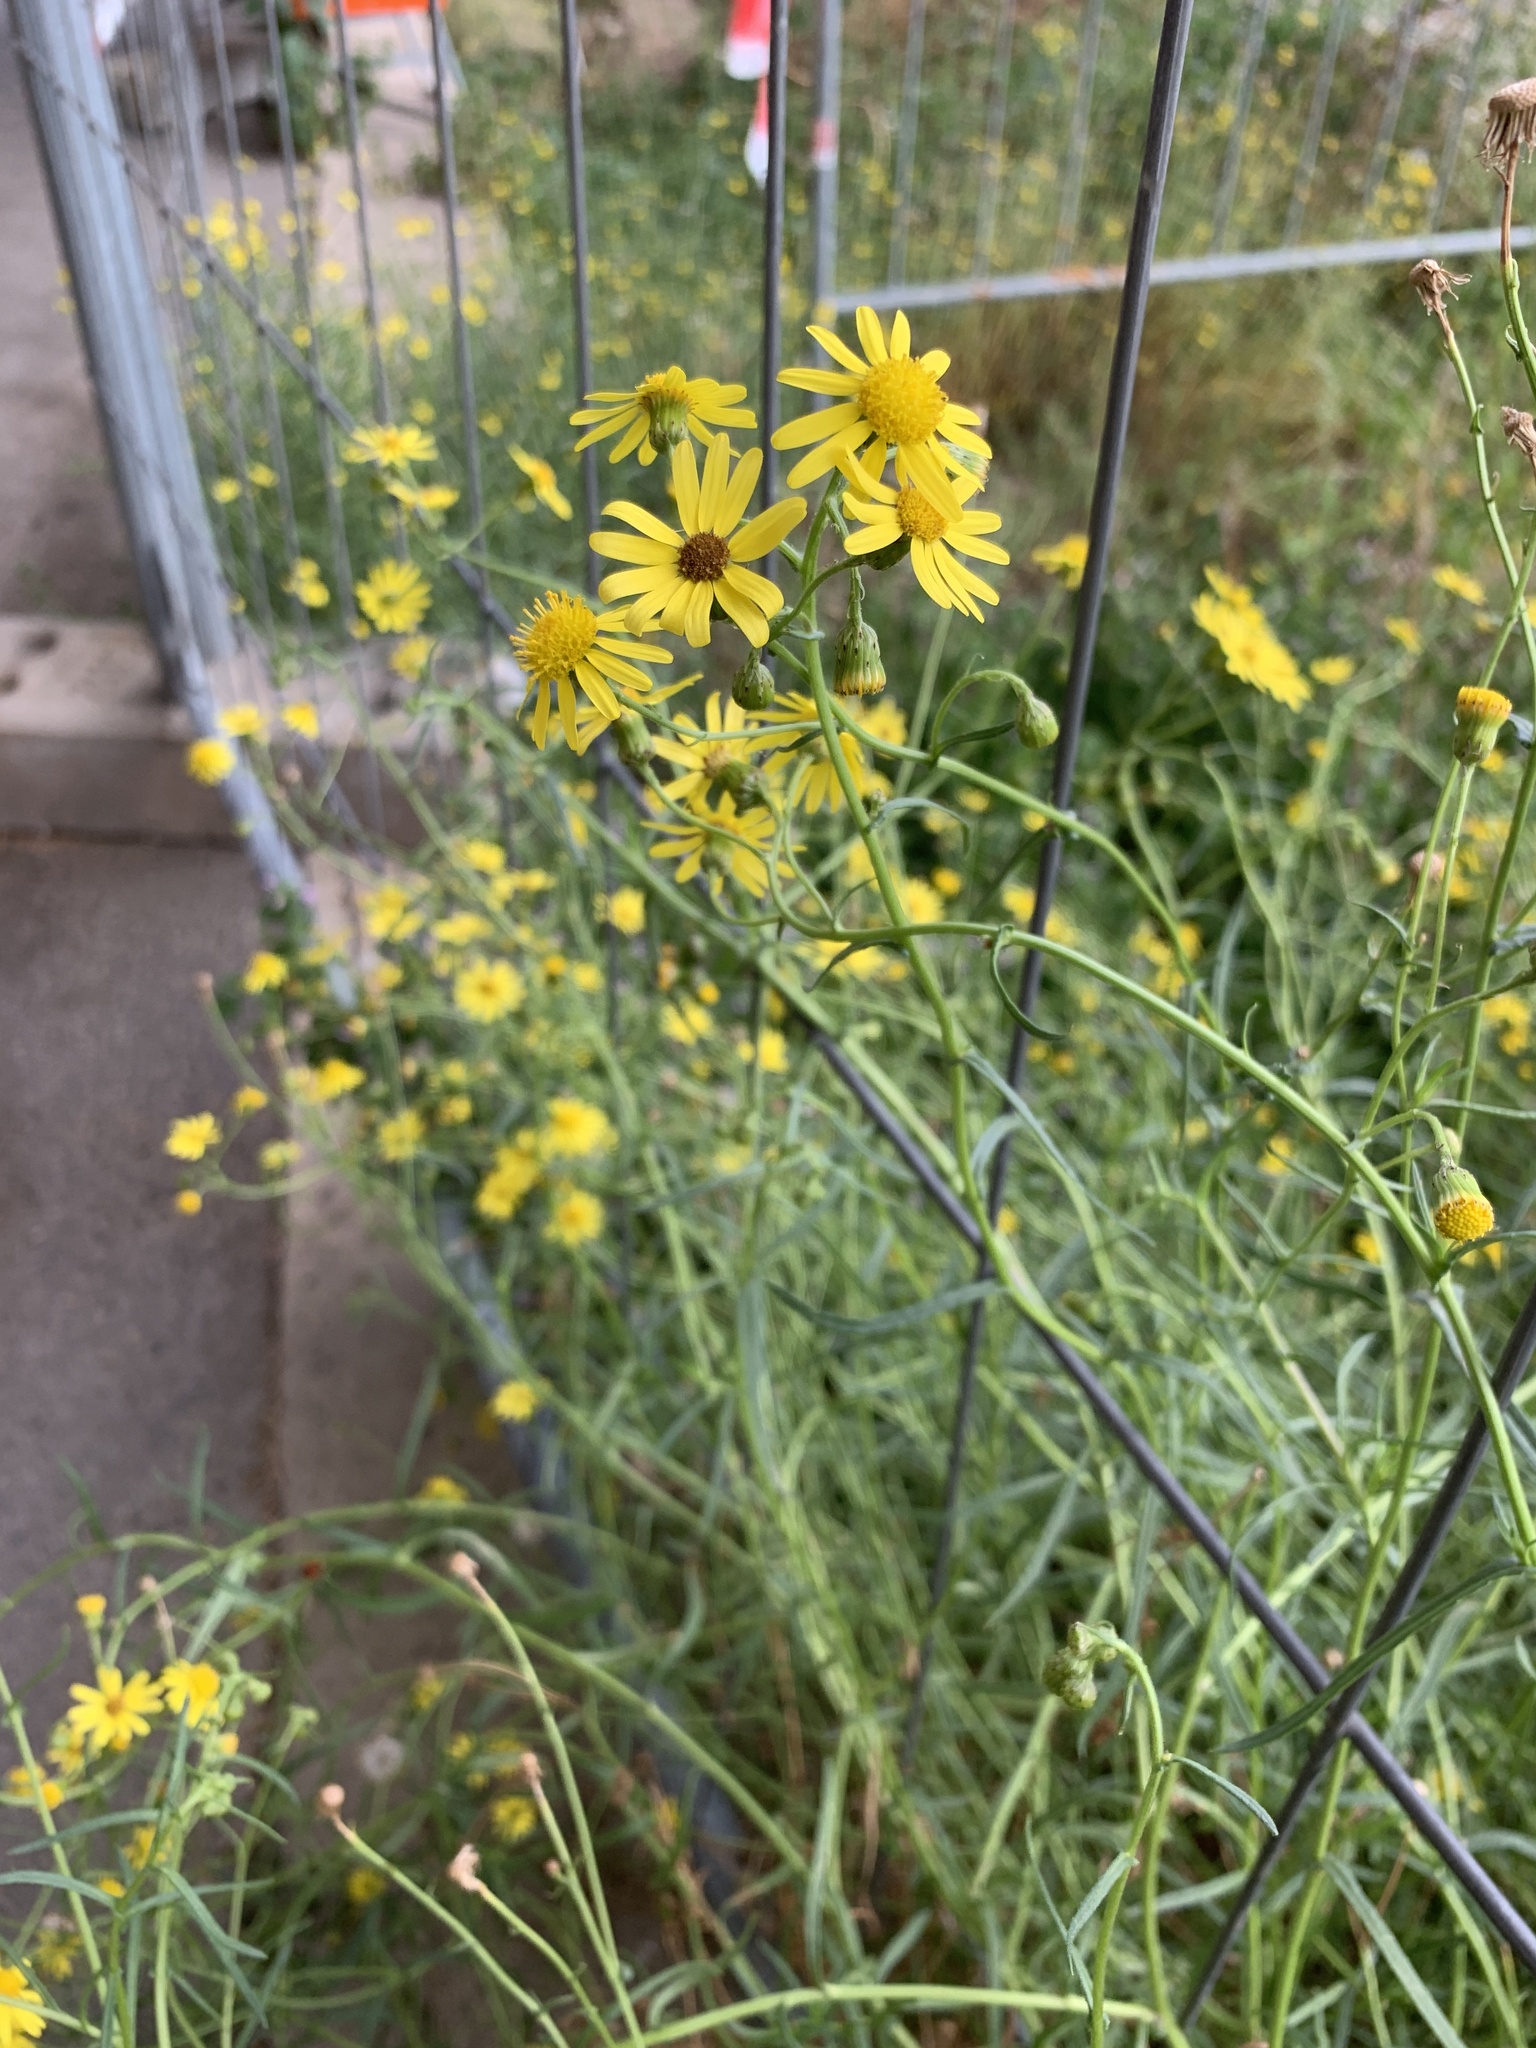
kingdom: Plantae
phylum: Tracheophyta
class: Magnoliopsida
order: Asterales
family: Asteraceae
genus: Senecio
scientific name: Senecio inaequidens
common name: Narrow-leaved ragwort
